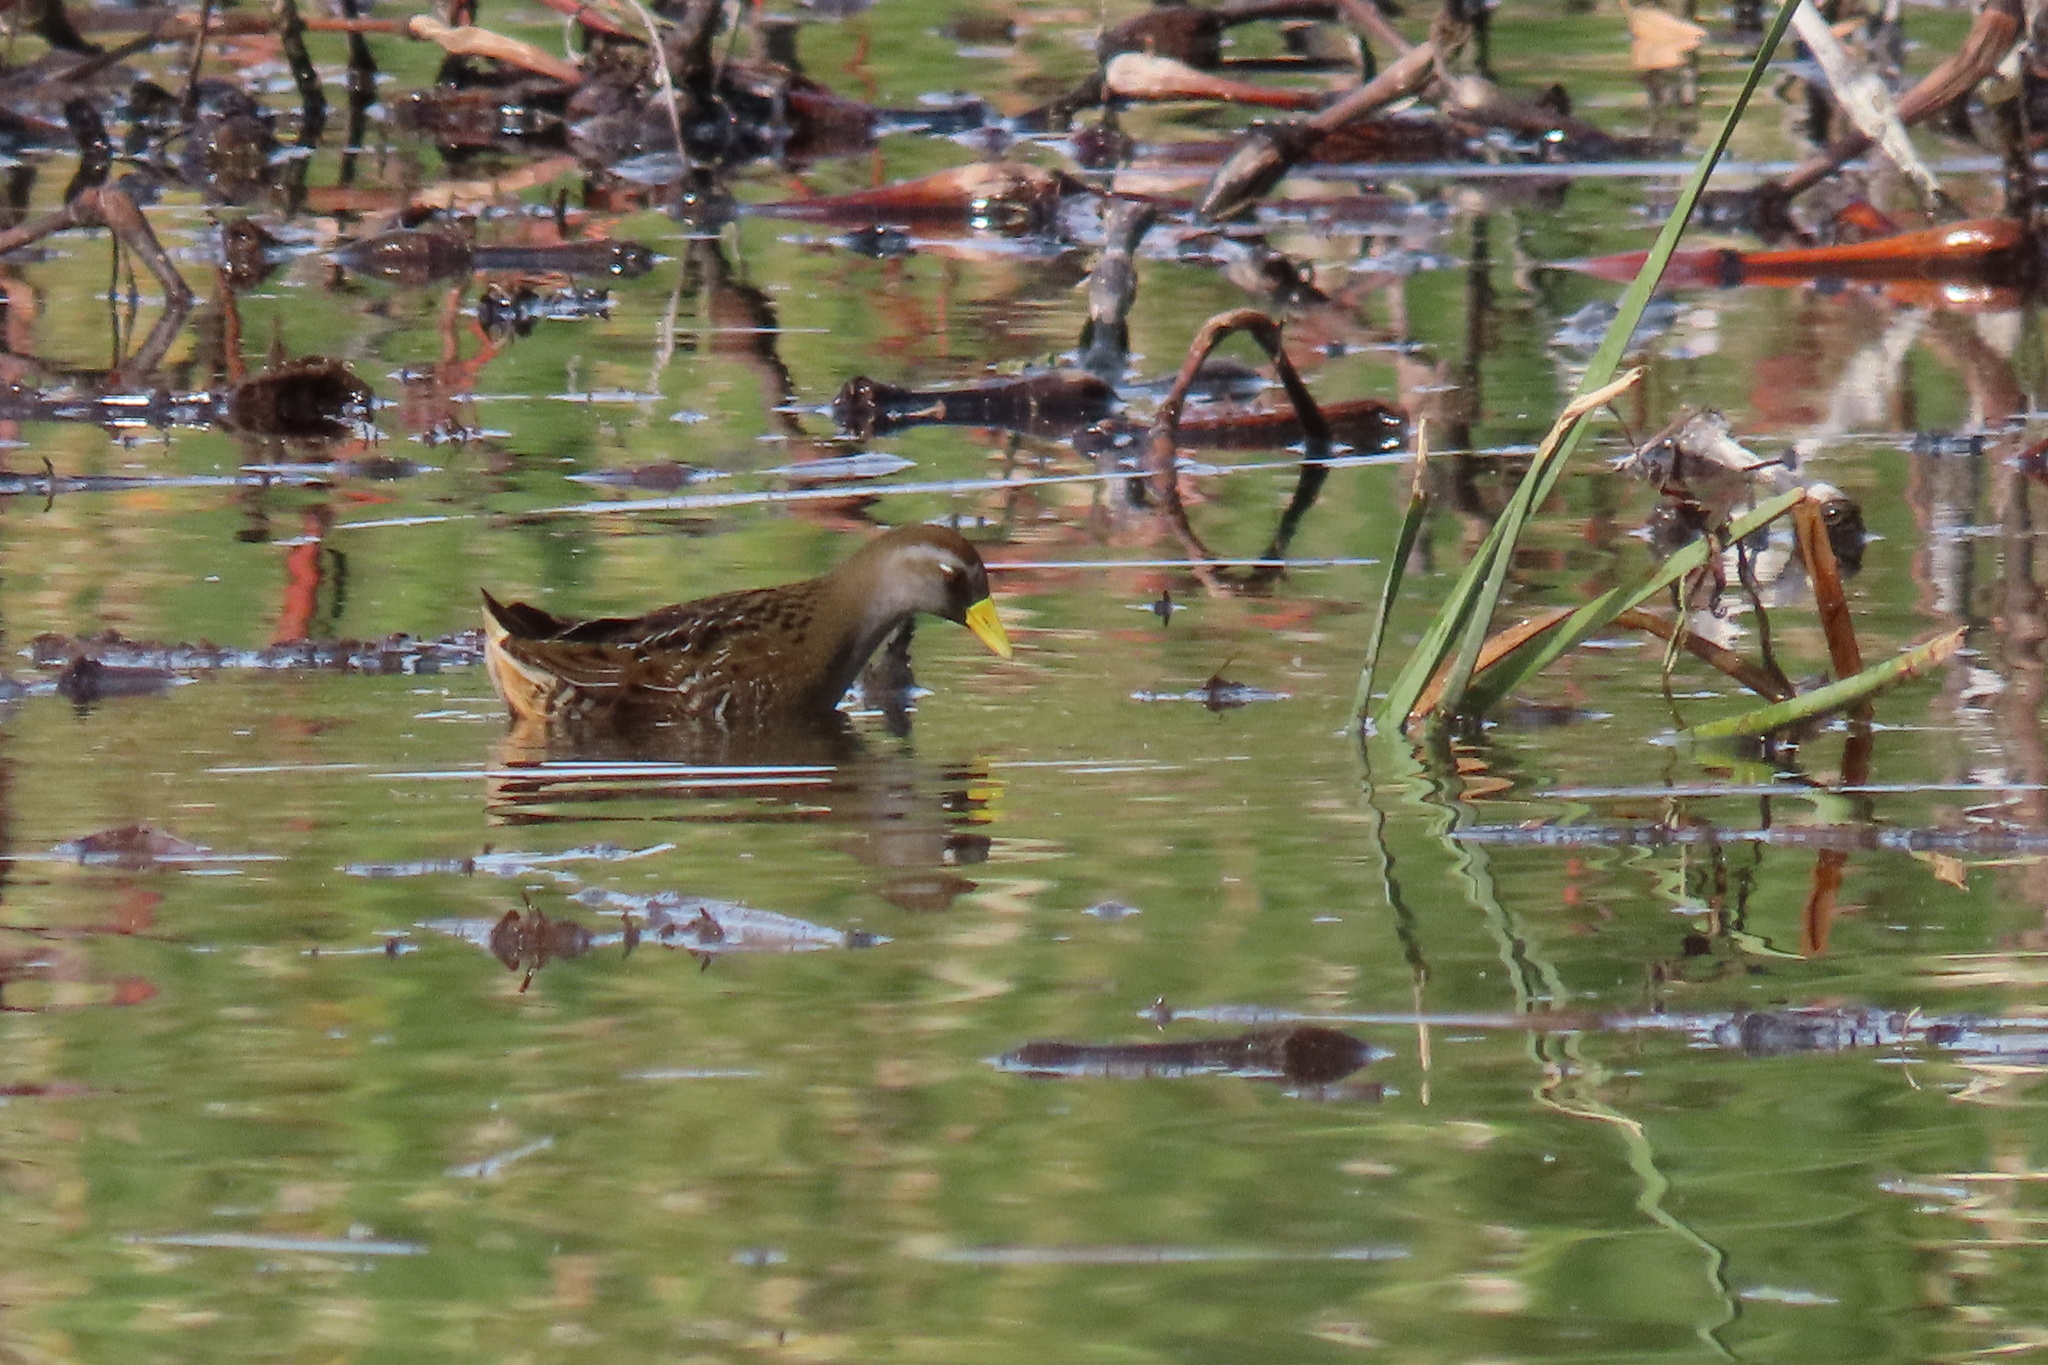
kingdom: Animalia
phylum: Chordata
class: Aves
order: Gruiformes
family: Rallidae
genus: Porzana
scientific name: Porzana carolina
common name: Sora
